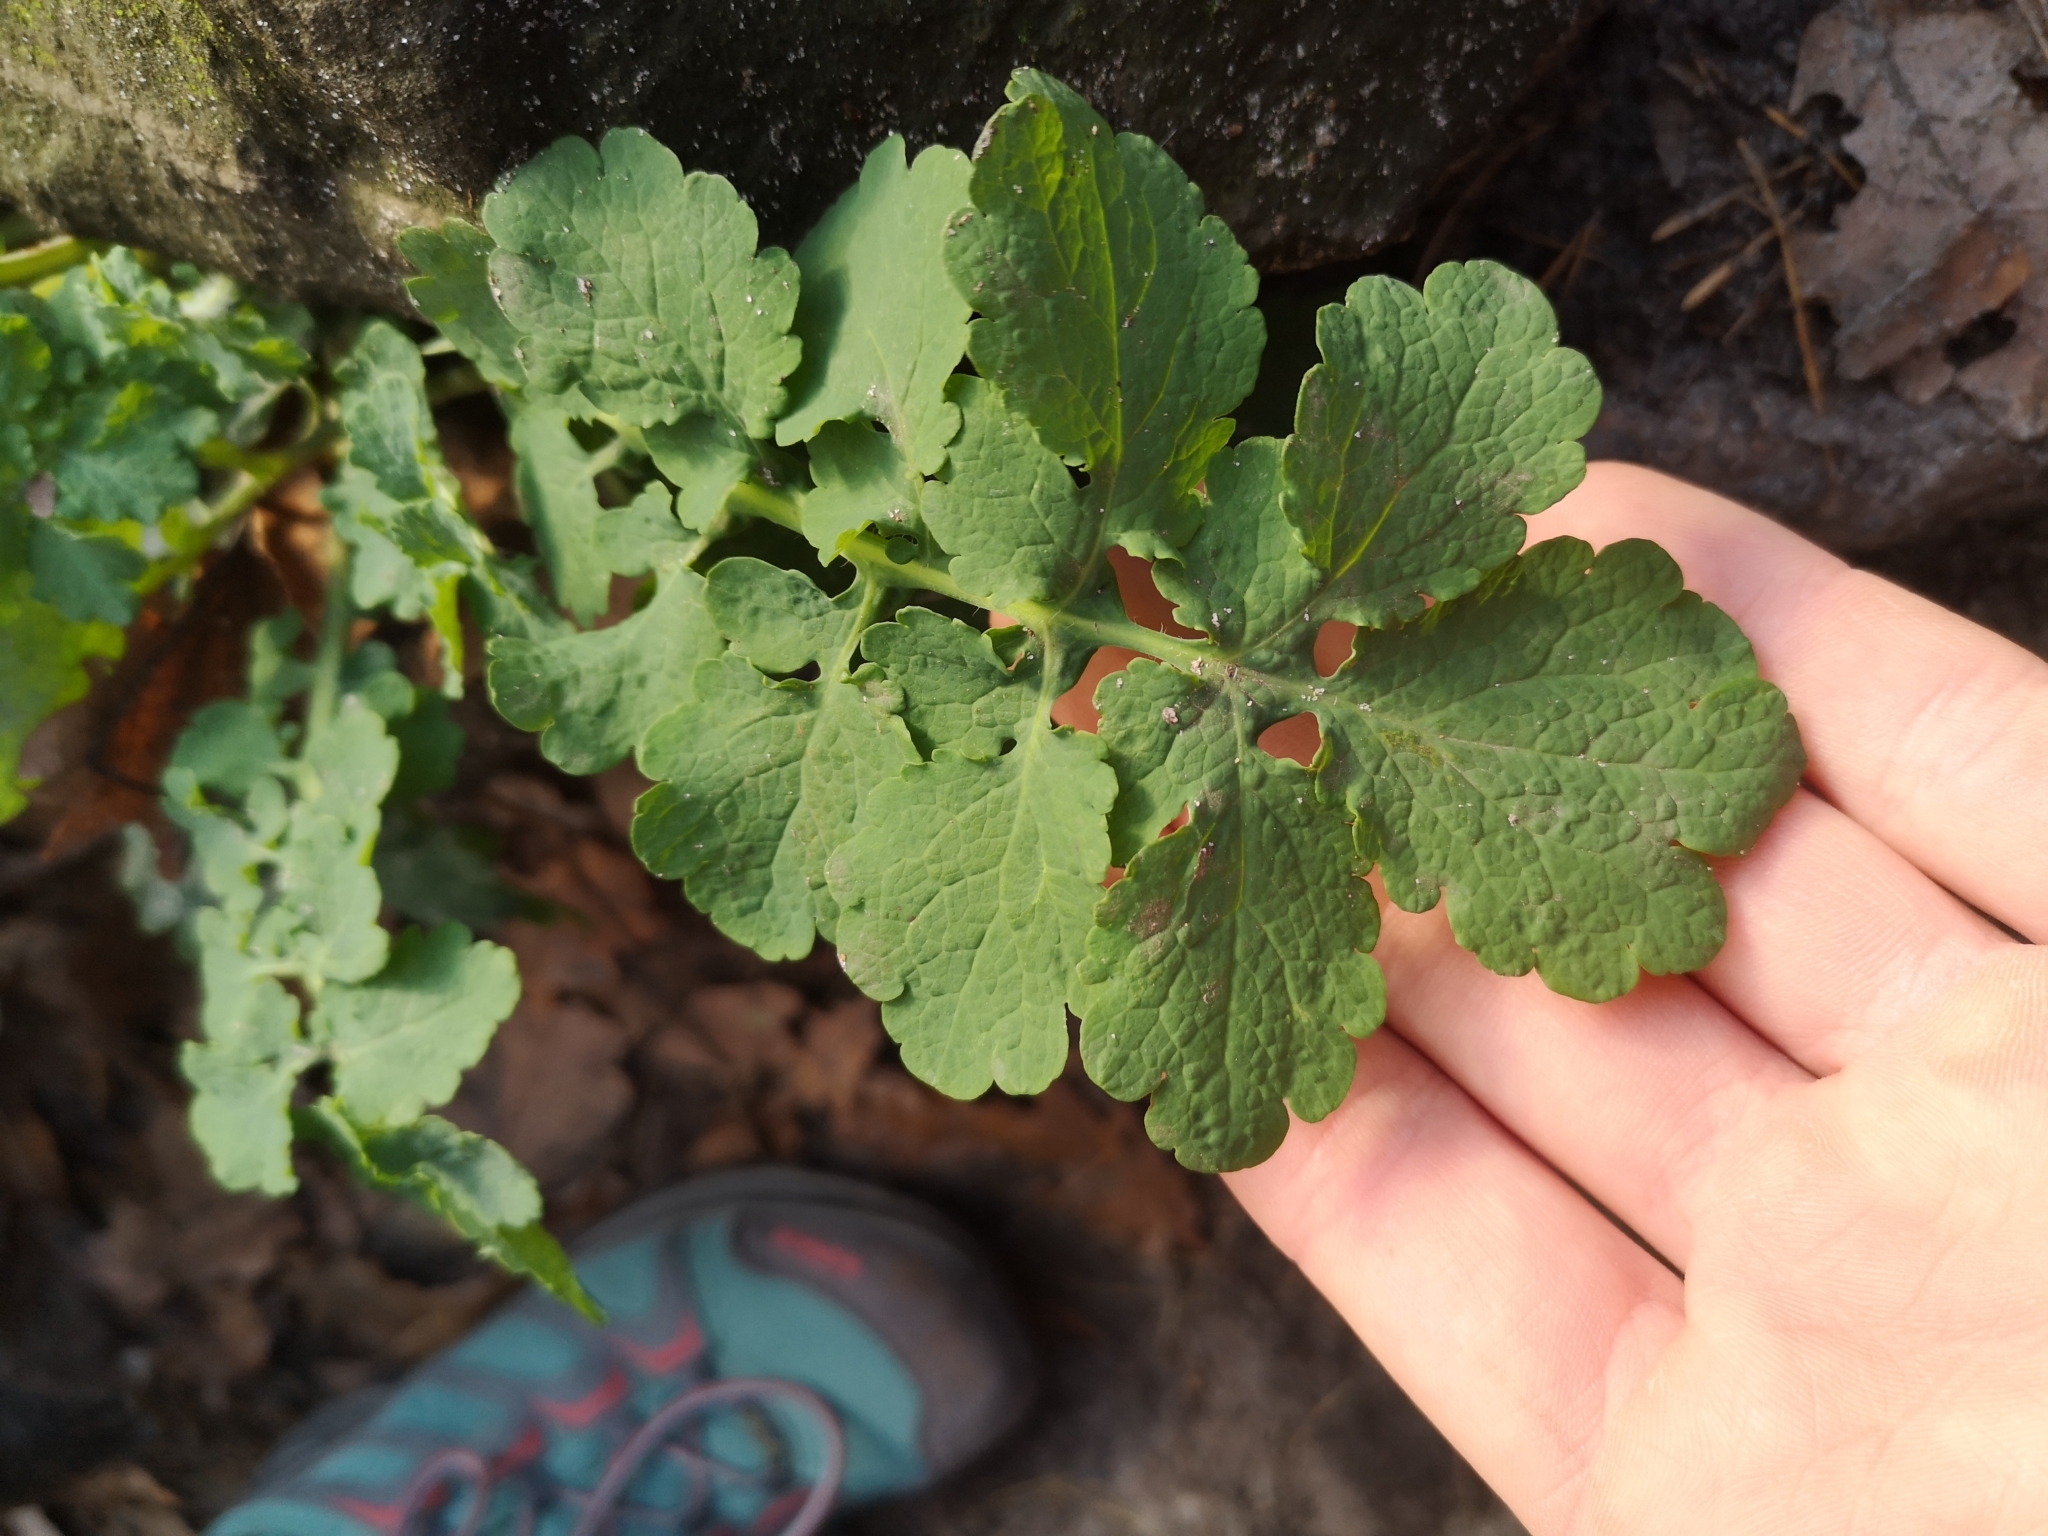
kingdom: Plantae
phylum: Tracheophyta
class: Magnoliopsida
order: Ranunculales
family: Papaveraceae
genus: Chelidonium
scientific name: Chelidonium majus
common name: Greater celandine
